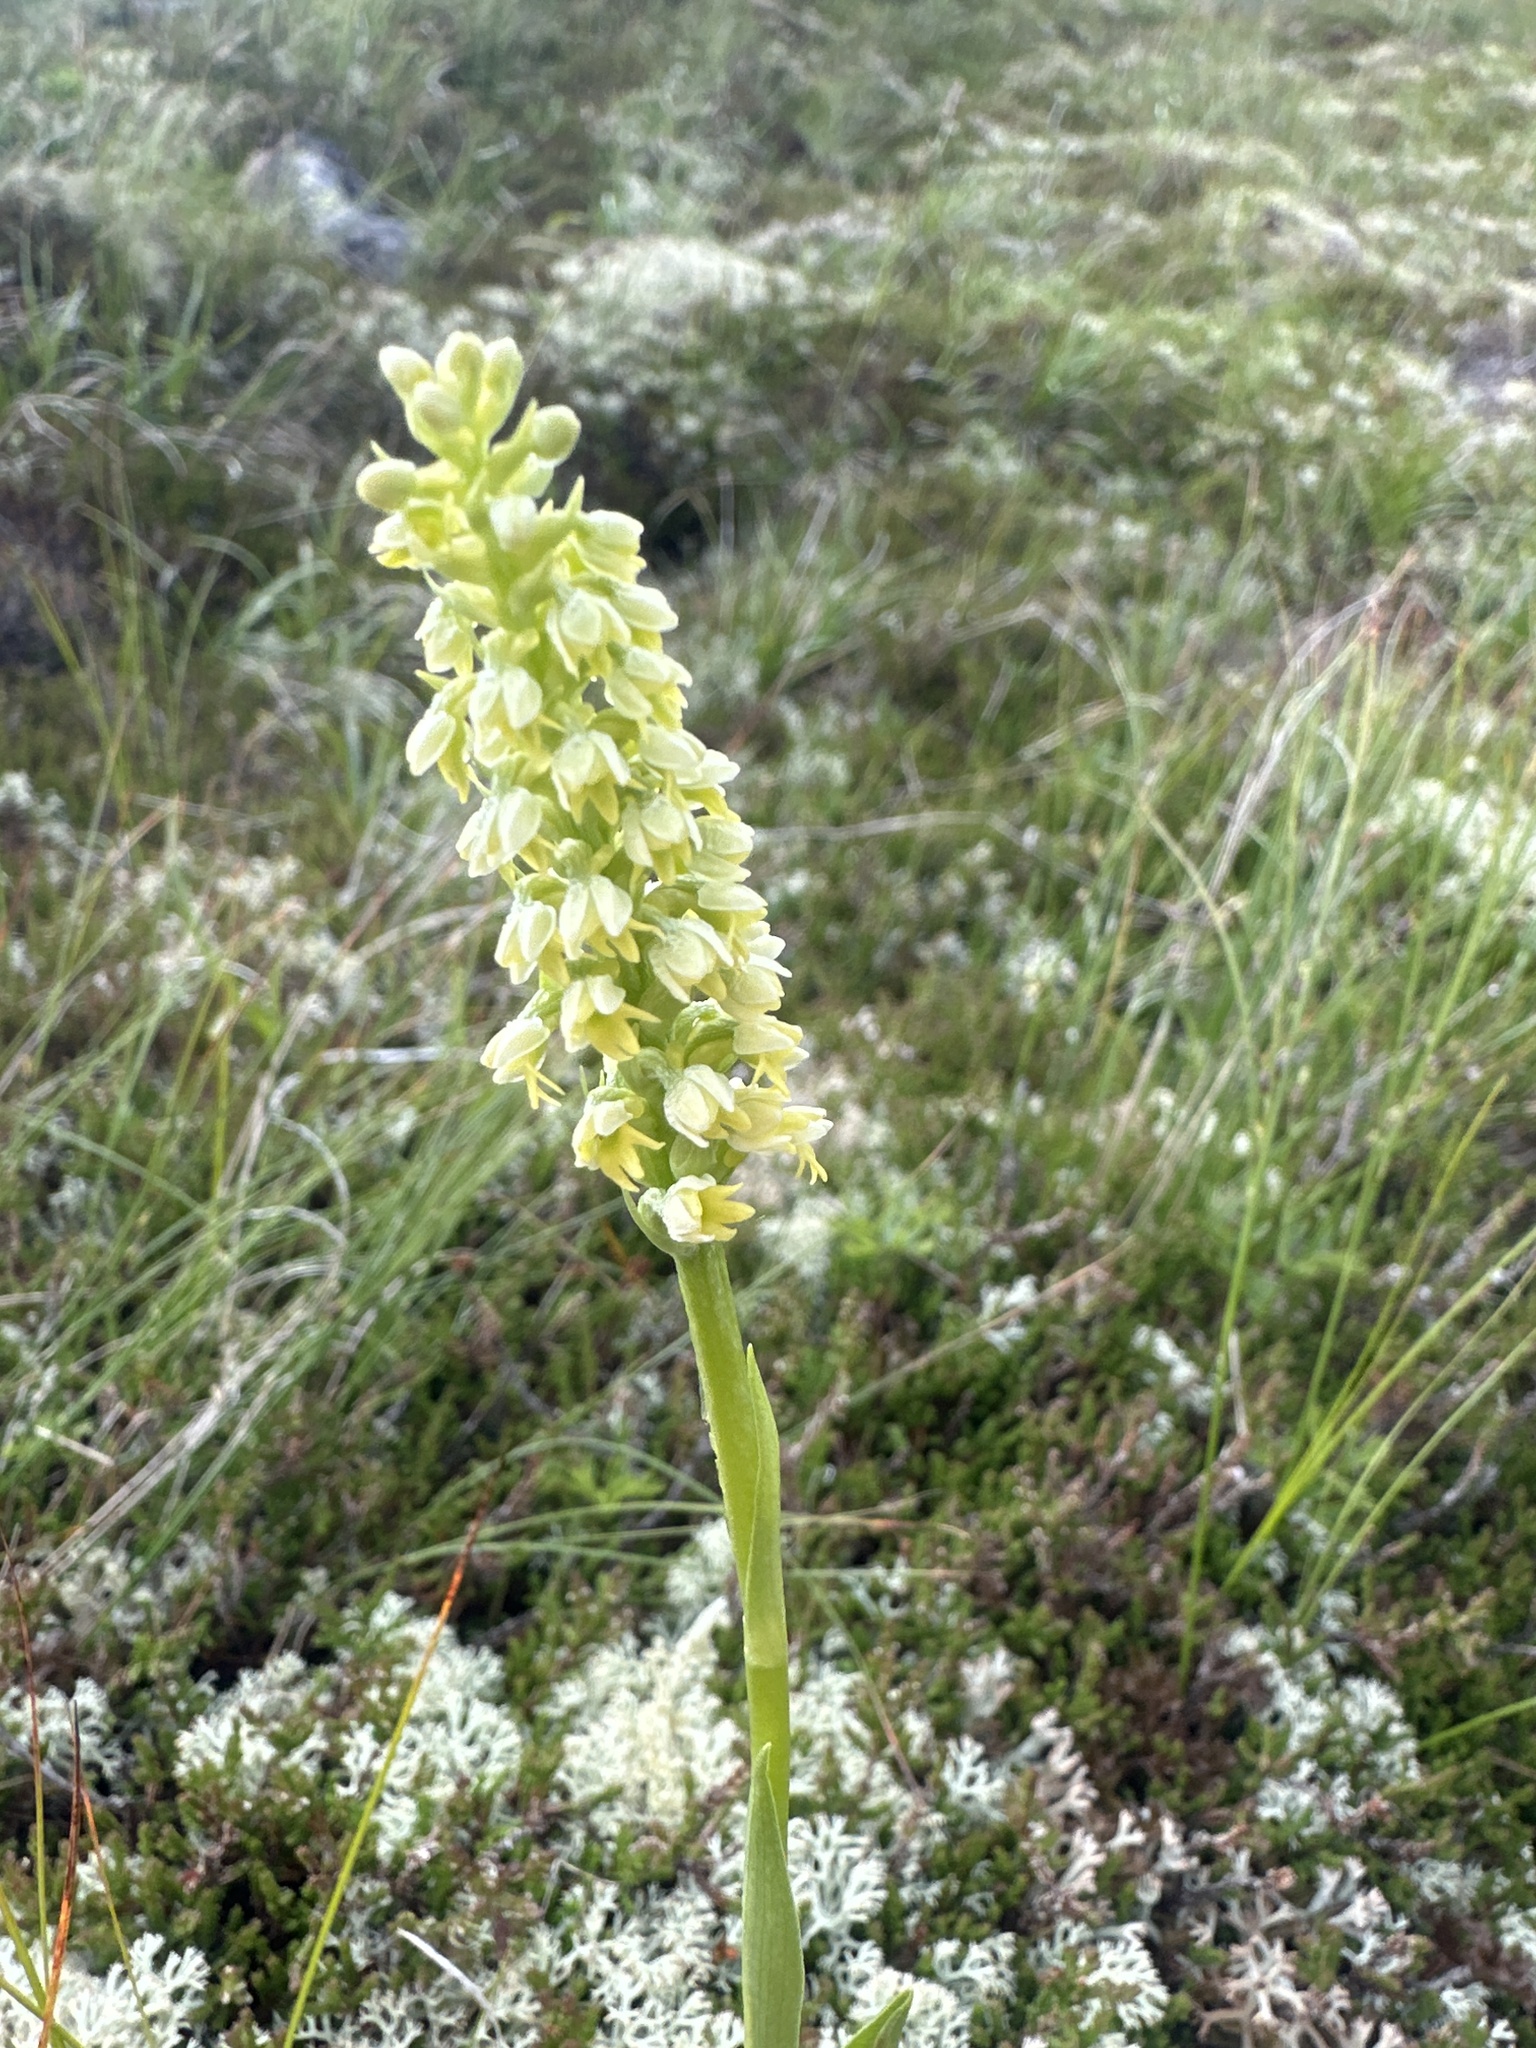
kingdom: Plantae
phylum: Tracheophyta
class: Liliopsida
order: Asparagales
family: Orchidaceae
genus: Pseudorchis
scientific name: Pseudorchis albida
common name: Small-white orchid
